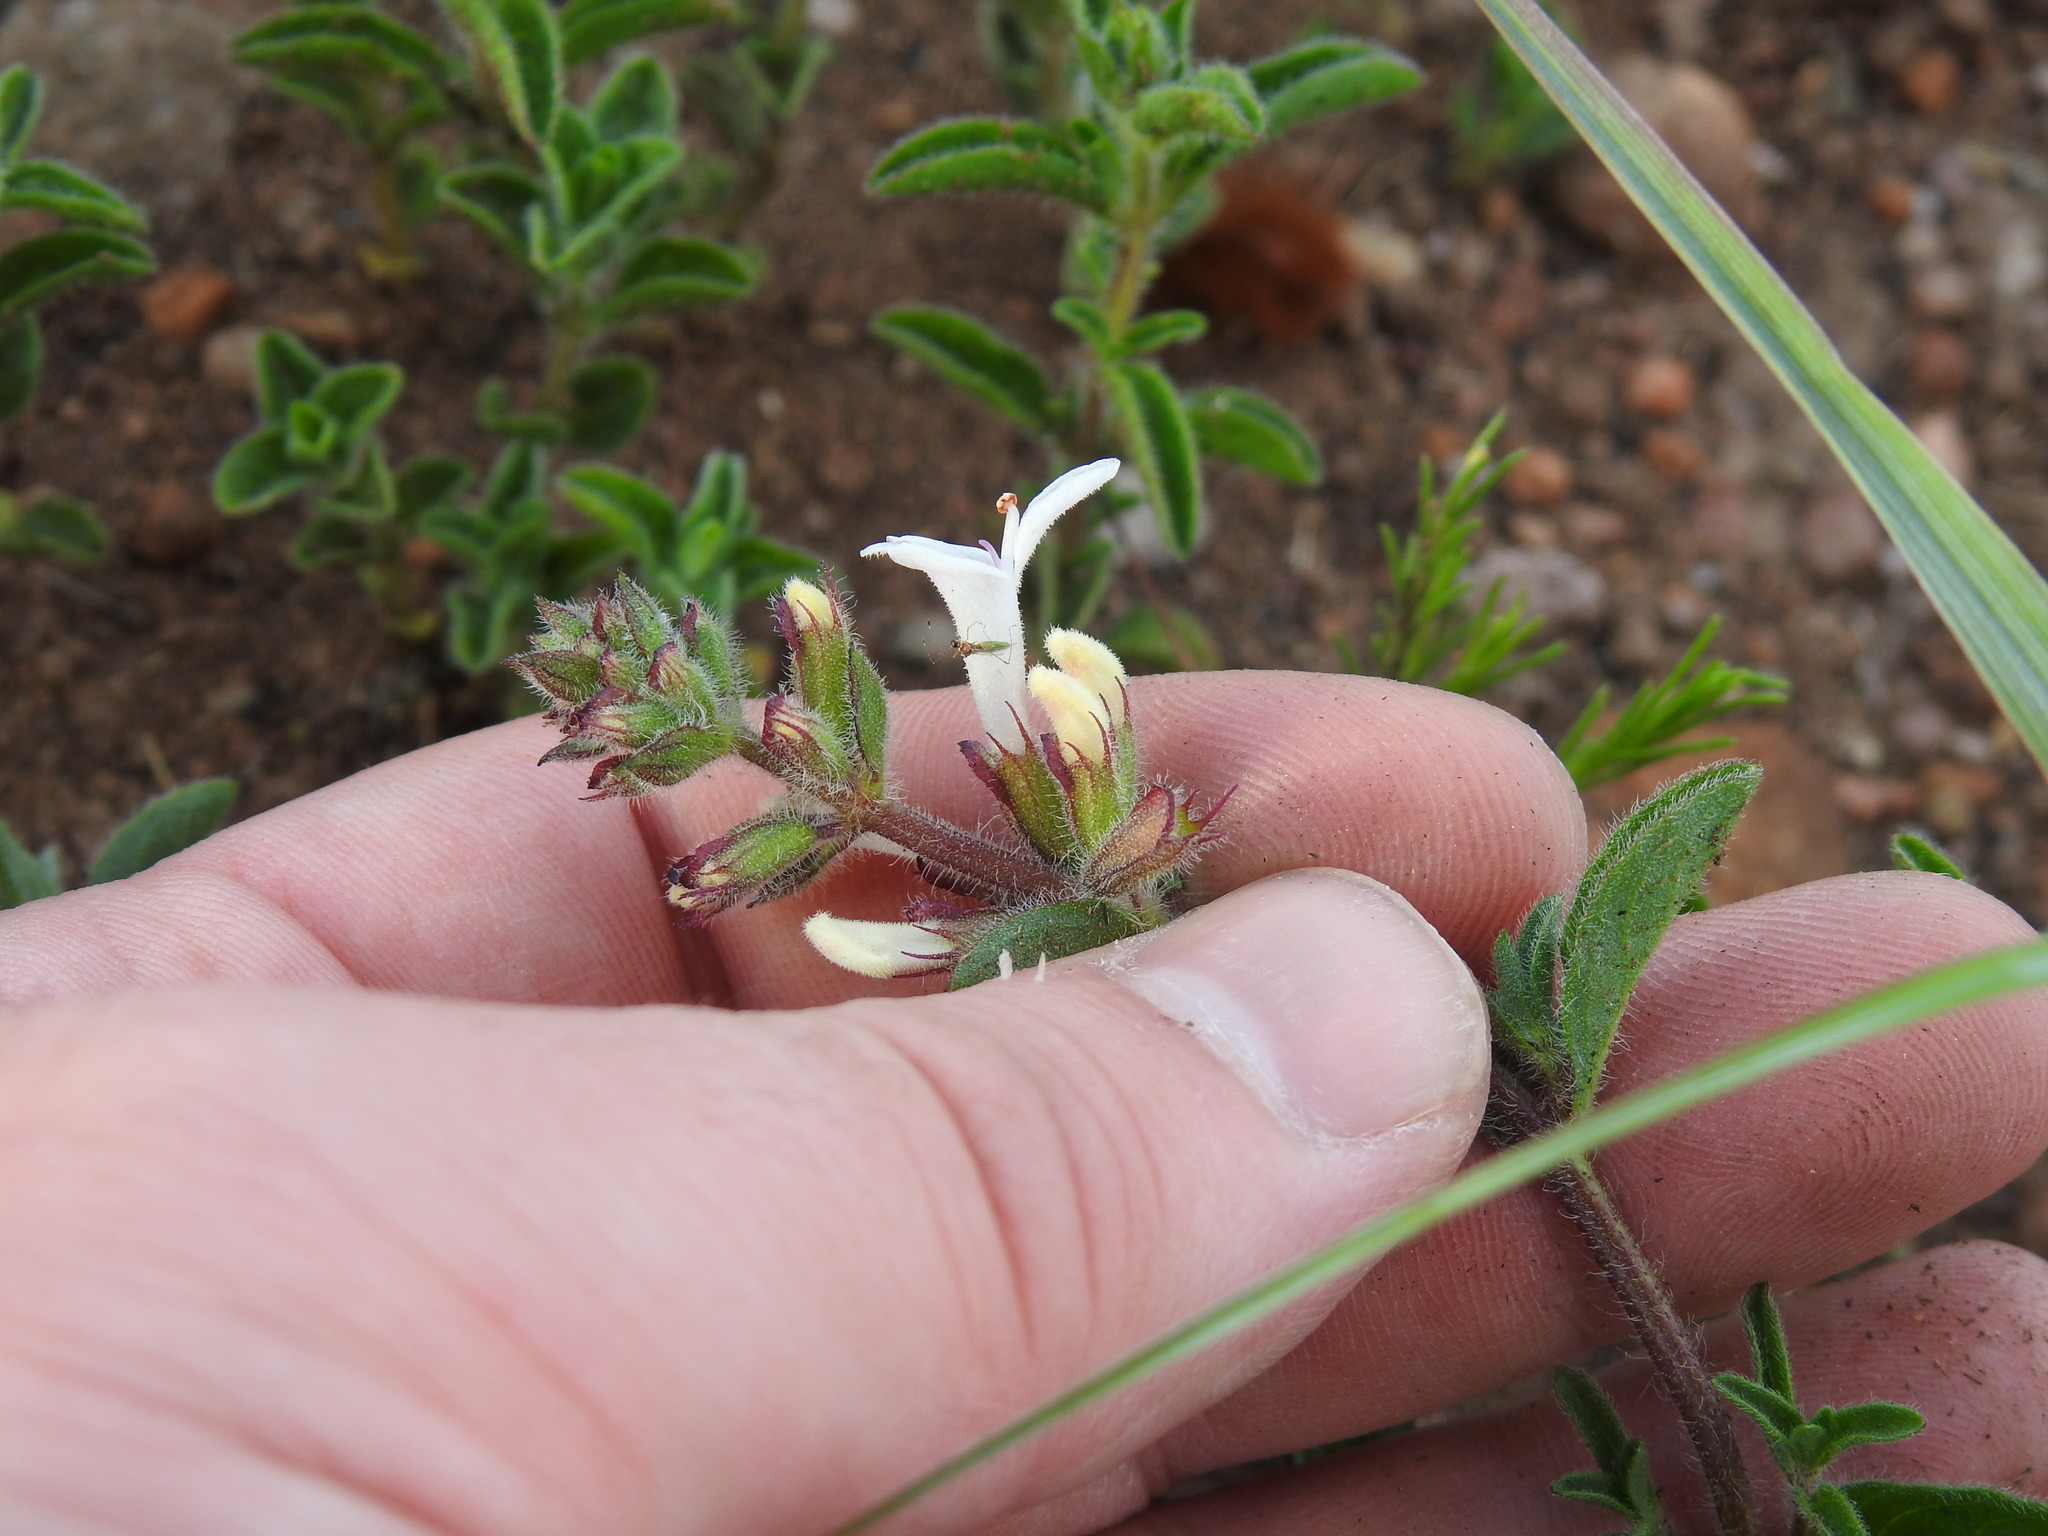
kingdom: Plantae
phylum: Tracheophyta
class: Magnoliopsida
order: Lamiales
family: Lamiaceae
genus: Syncolostemon
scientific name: Syncolostemon pretoriae
